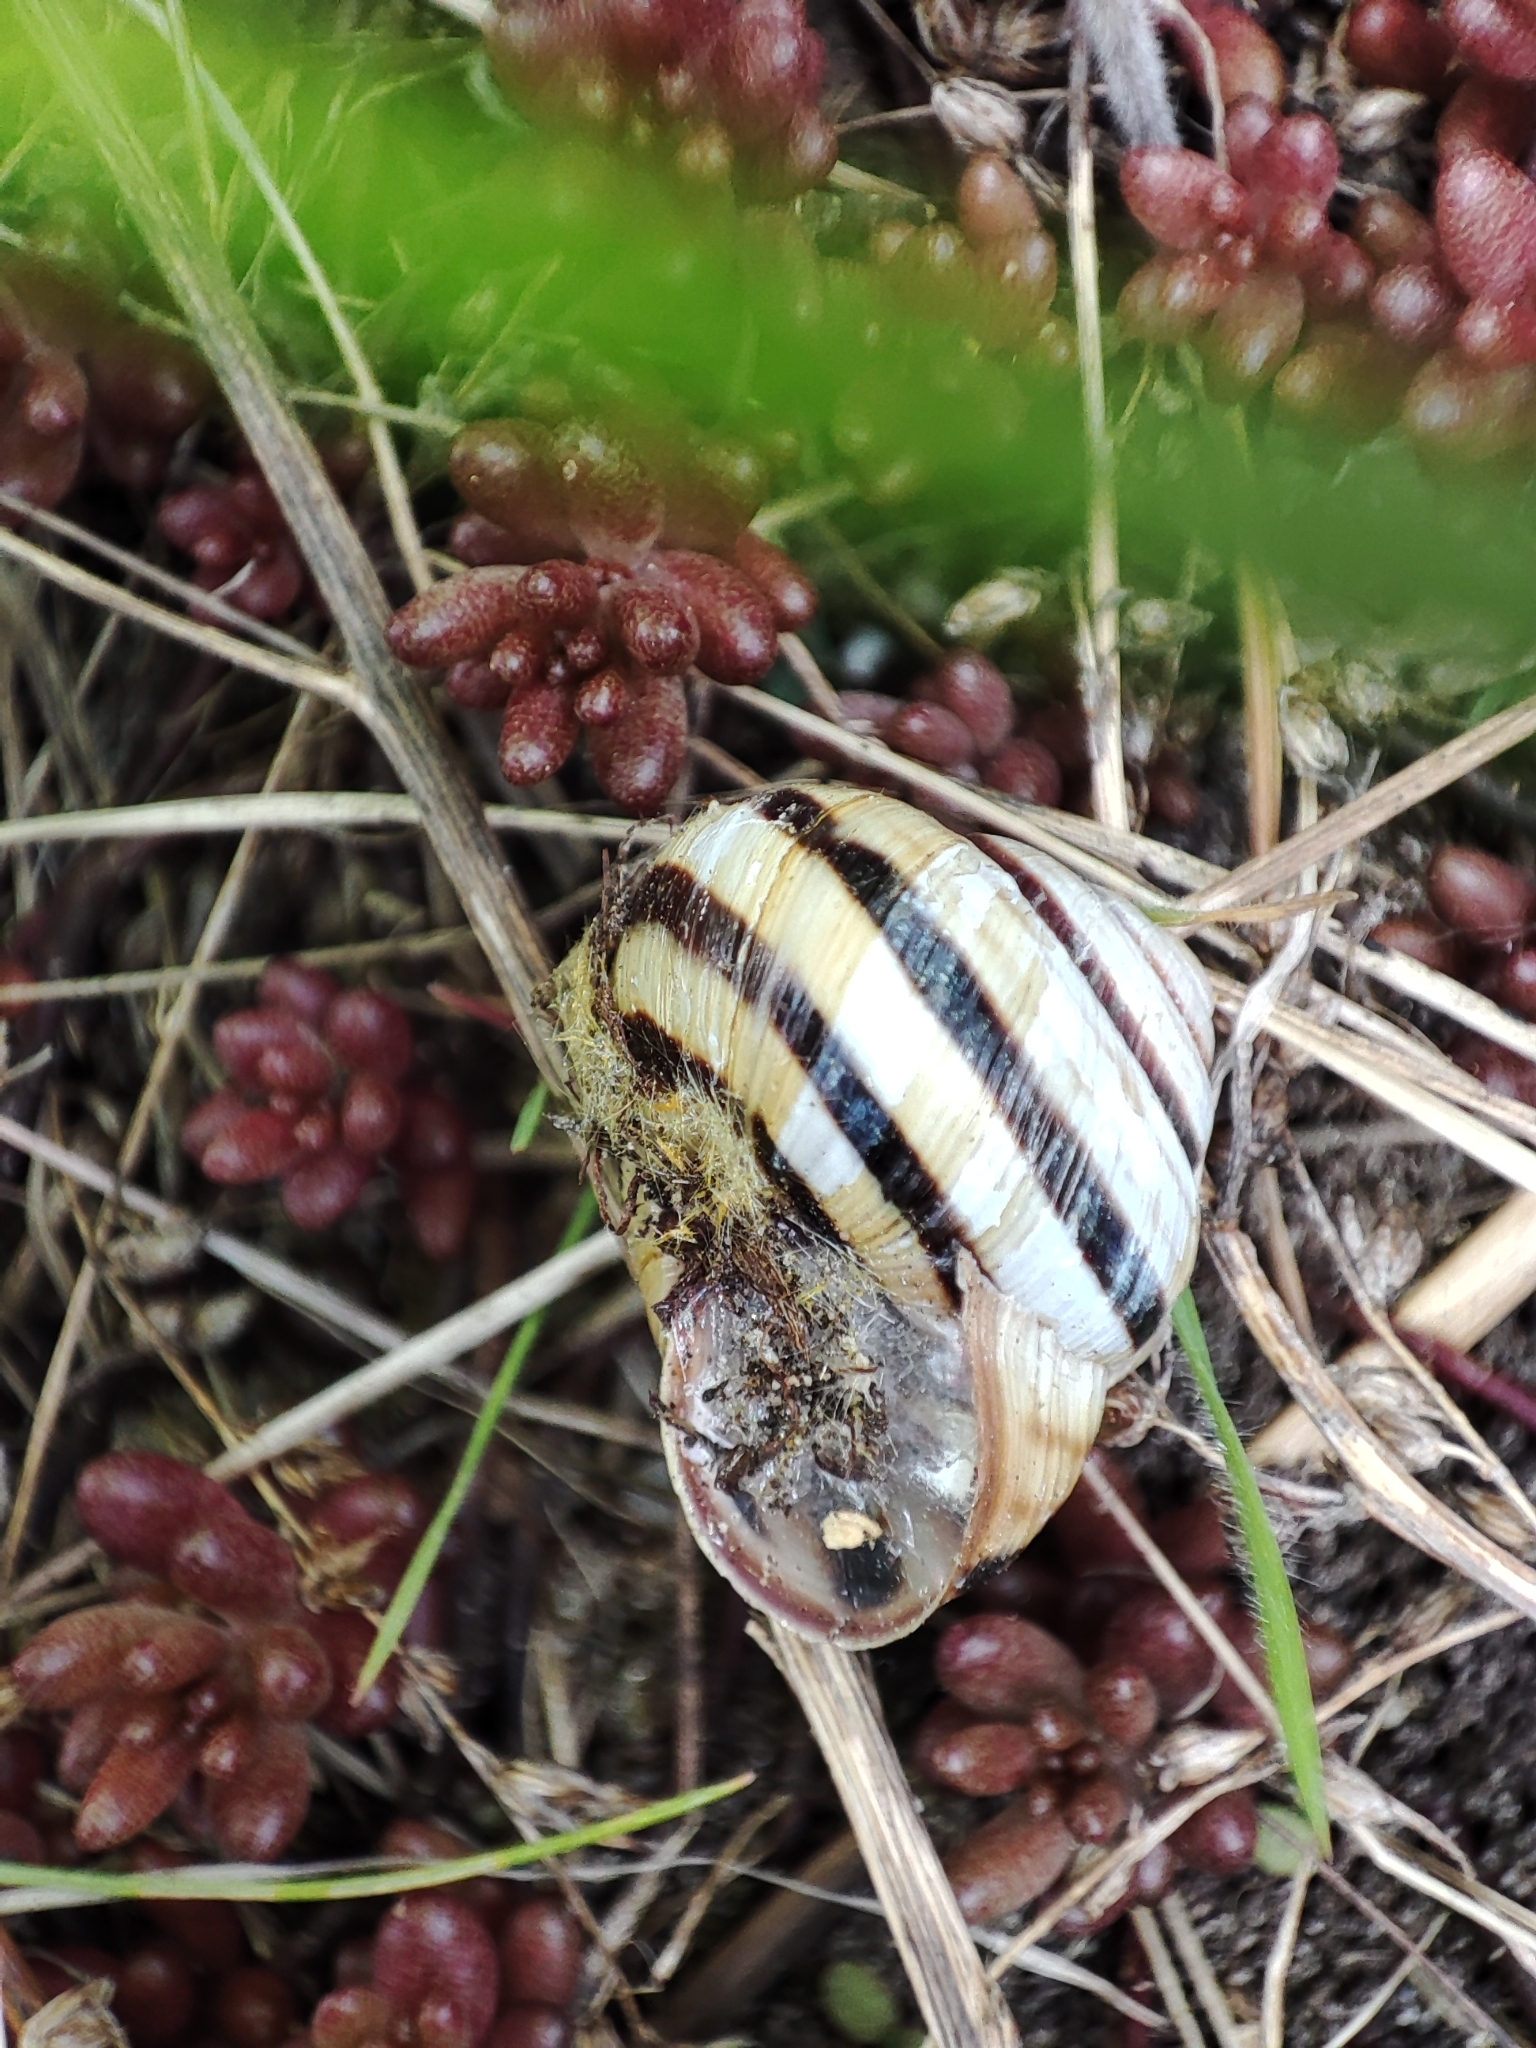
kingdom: Animalia
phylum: Mollusca
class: Gastropoda
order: Stylommatophora
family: Helicidae
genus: Caucasotachea
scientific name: Caucasotachea vindobonensis
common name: European helicid land snail
